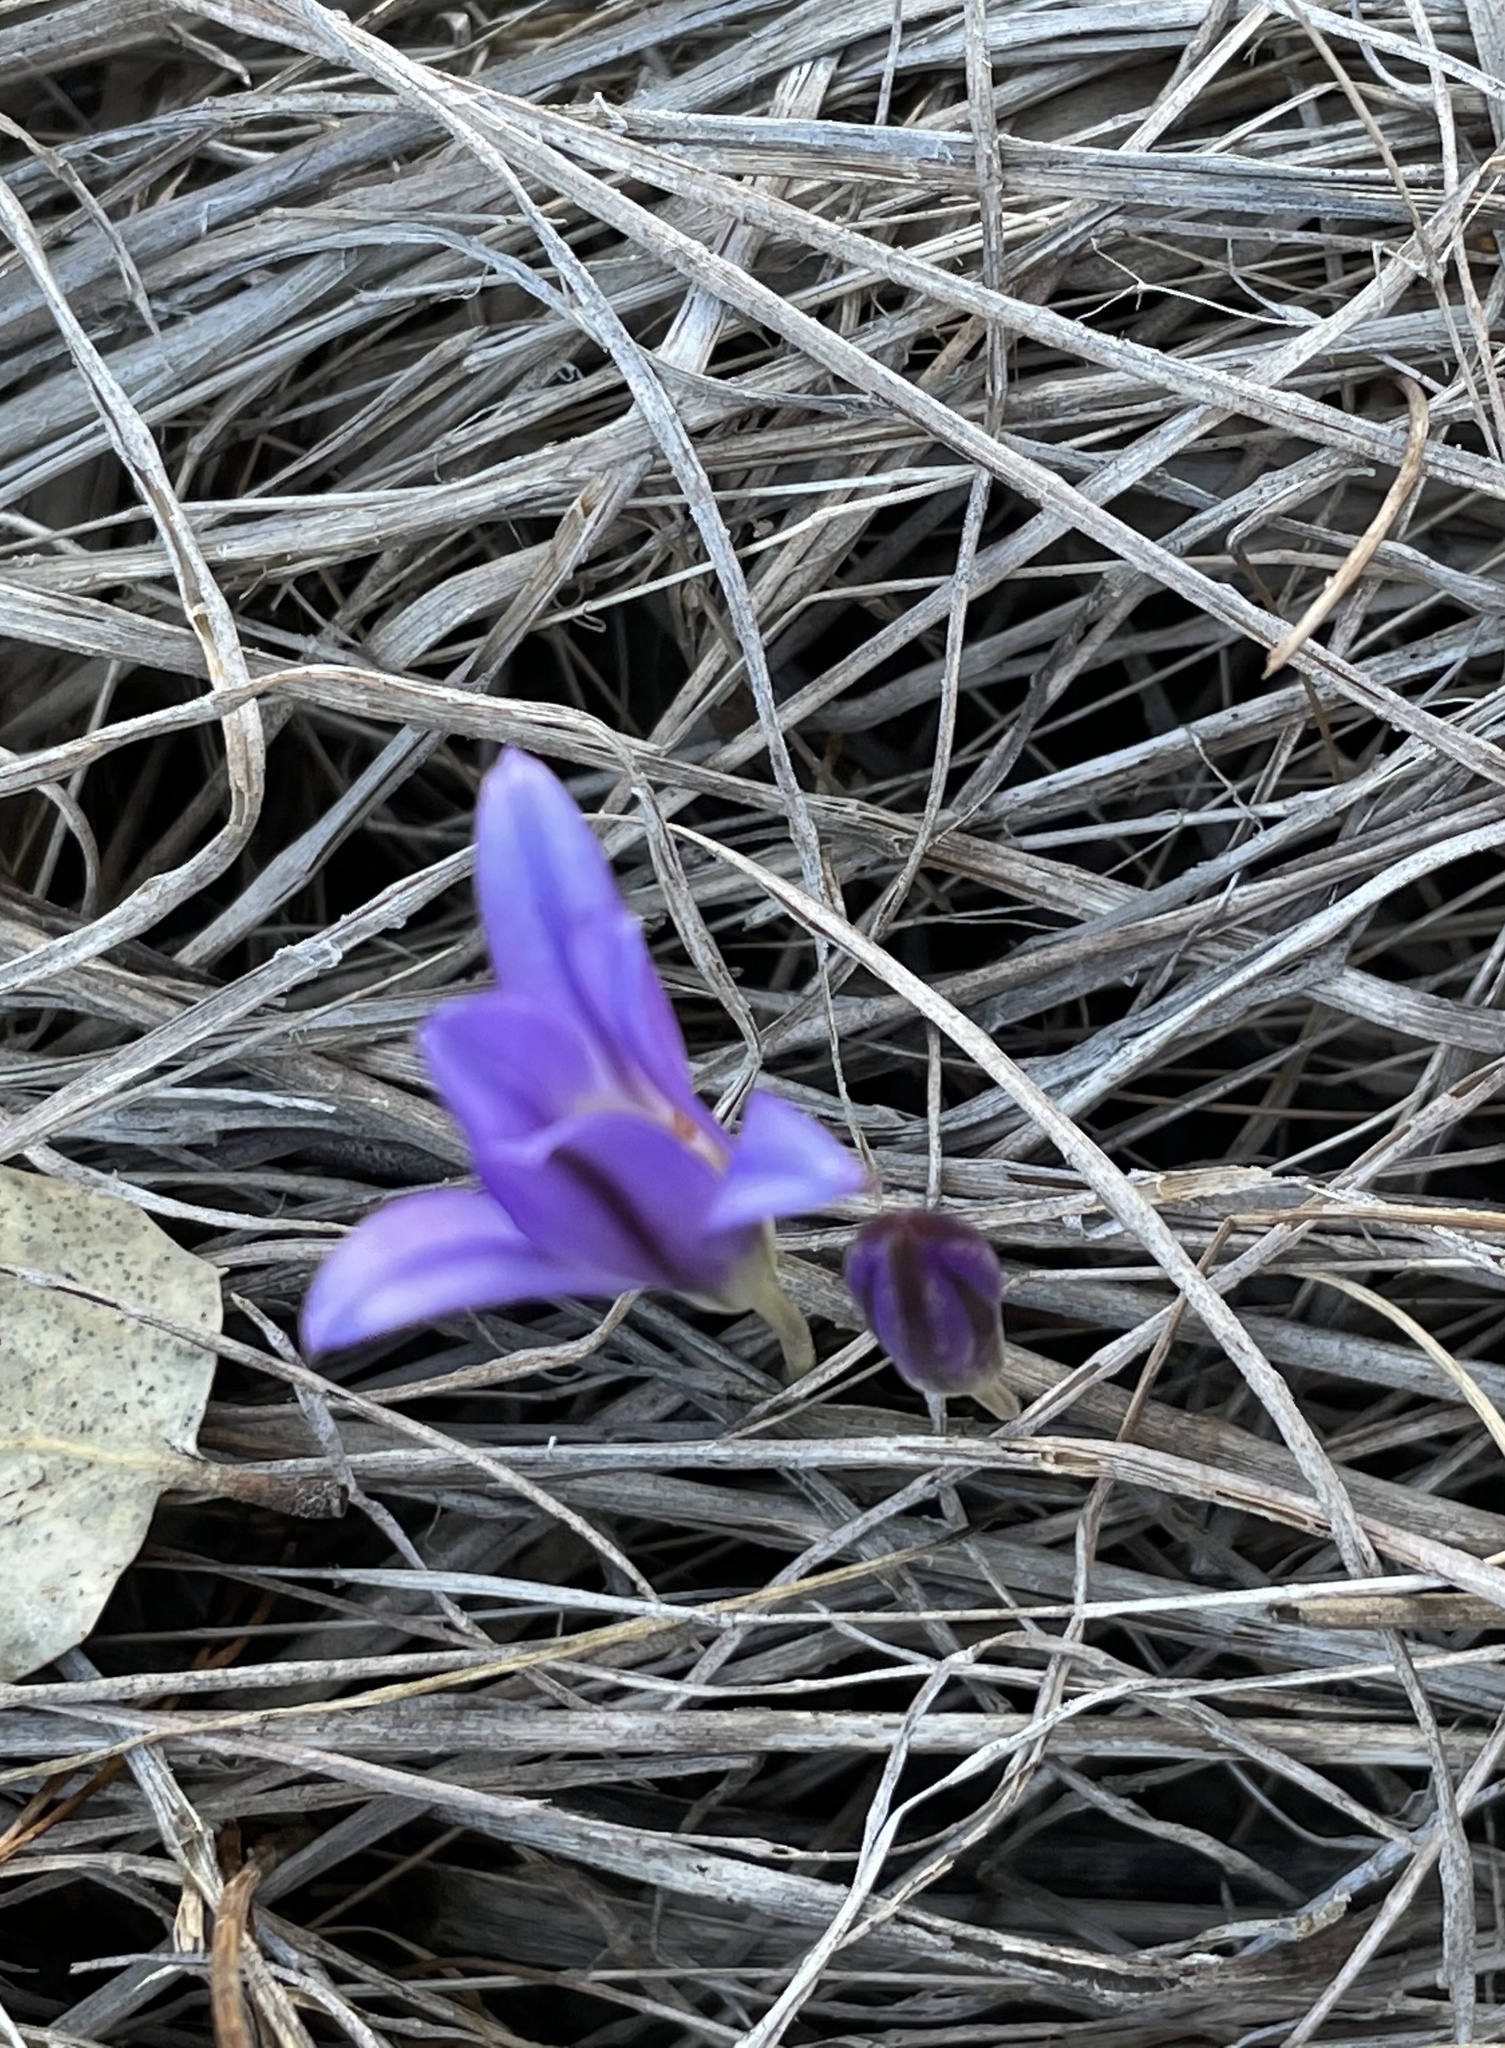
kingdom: Plantae
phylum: Tracheophyta
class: Liliopsida
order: Asparagales
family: Asparagaceae
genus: Brodiaea
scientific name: Brodiaea terrestris
